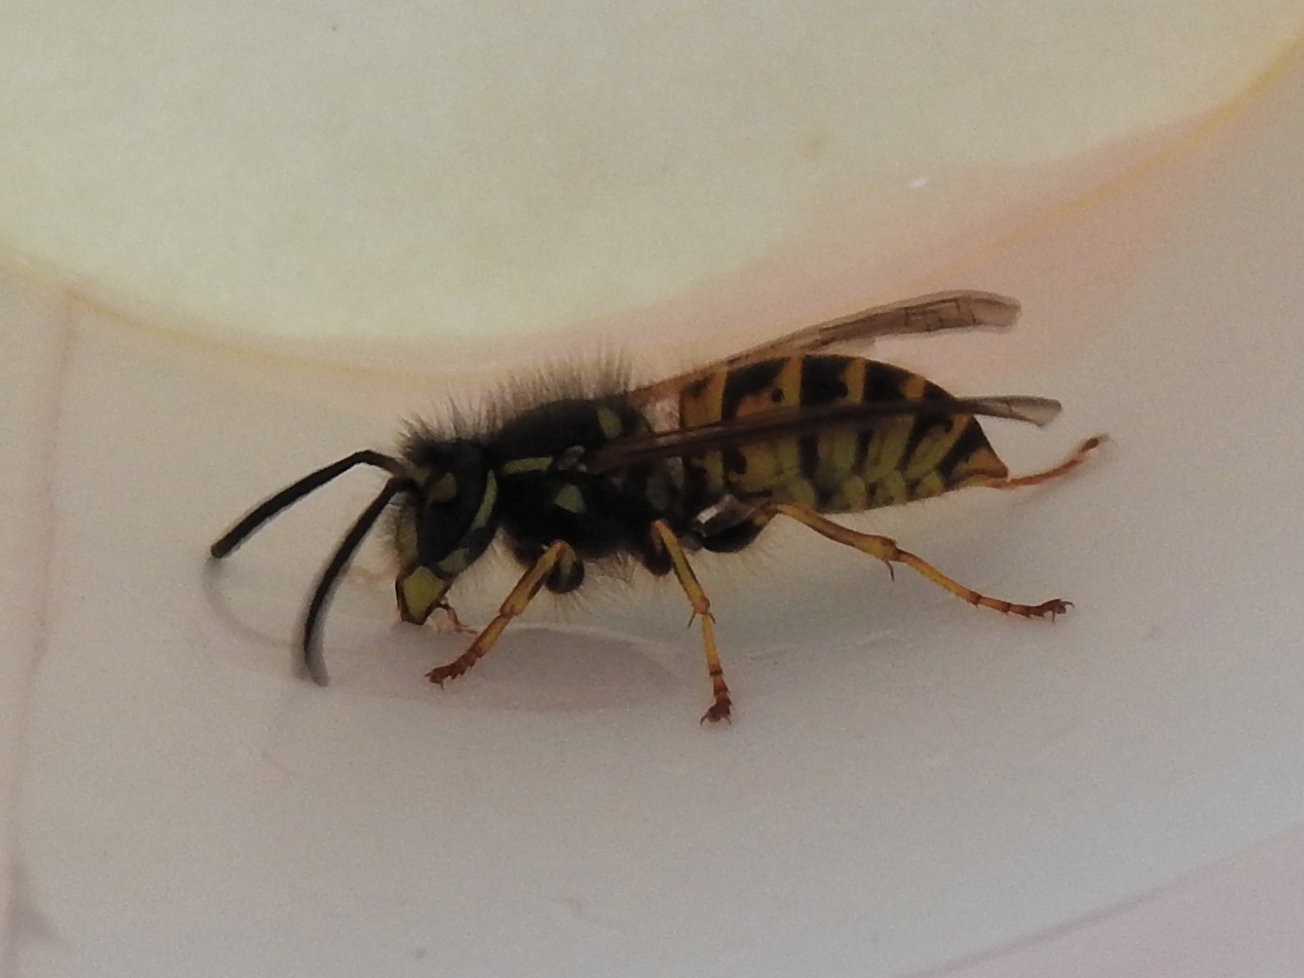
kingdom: Animalia
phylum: Arthropoda
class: Insecta
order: Hymenoptera
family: Vespidae
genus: Vespula
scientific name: Vespula vulgaris
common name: Common wasp
